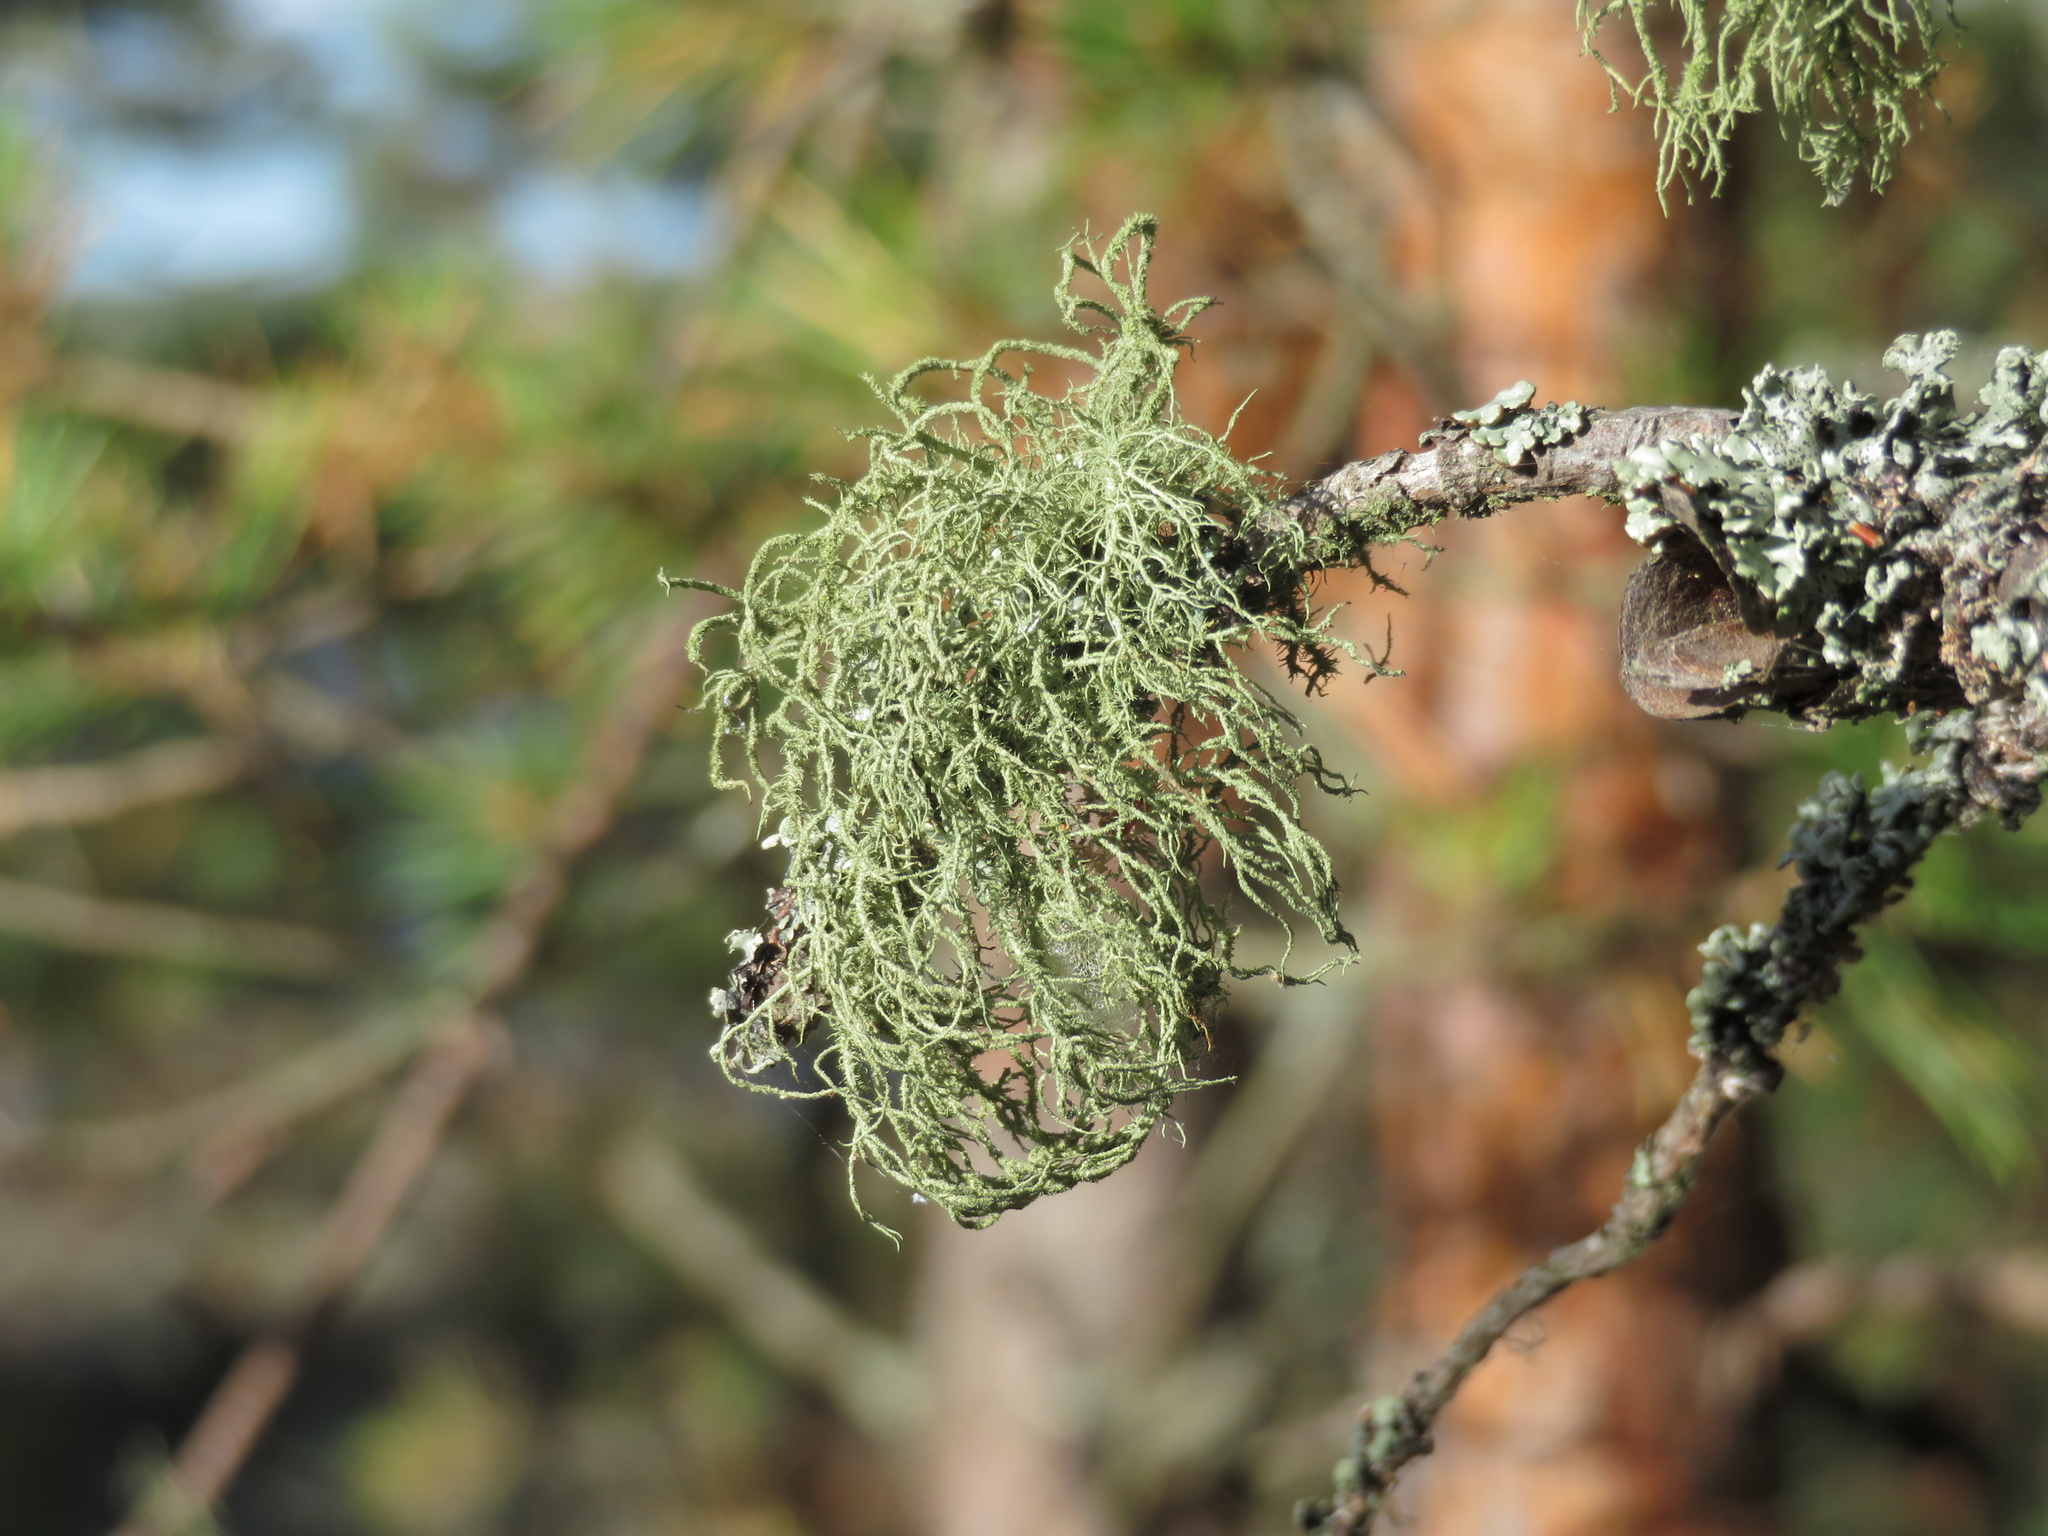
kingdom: Fungi
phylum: Ascomycota
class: Lecanoromycetes
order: Lecanorales
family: Parmeliaceae
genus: Usnea
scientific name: Usnea hirta
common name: Bristly beard lichen
